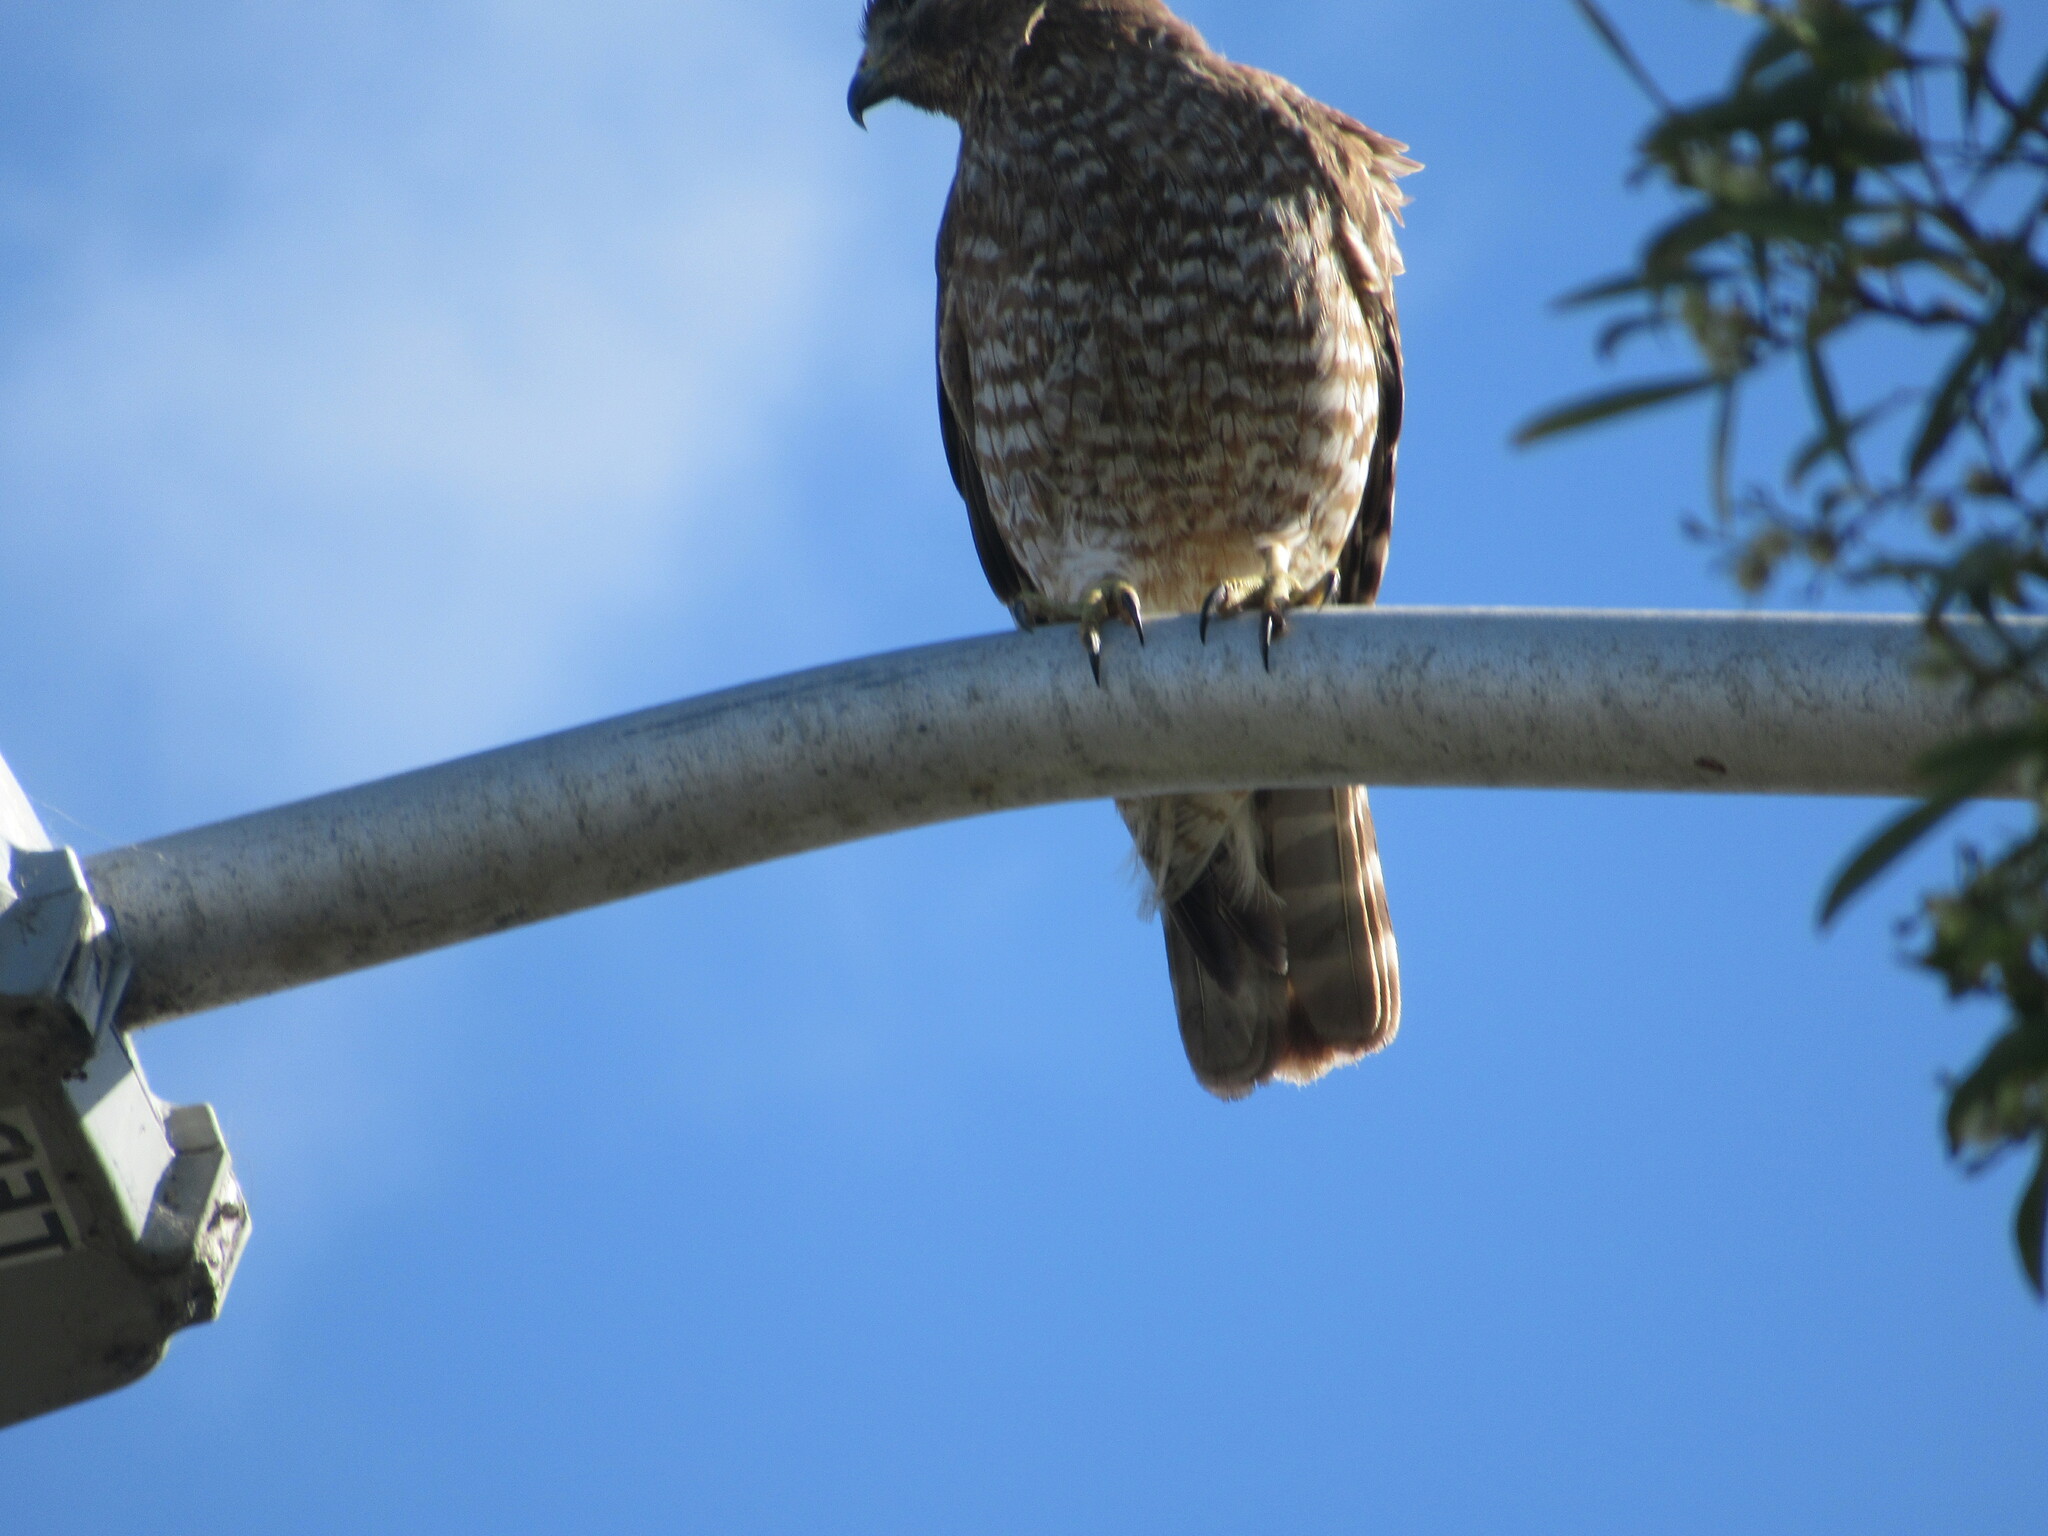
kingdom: Animalia
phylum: Chordata
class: Aves
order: Accipitriformes
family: Accipitridae
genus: Buteo
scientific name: Buteo lineatus
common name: Red-shouldered hawk
